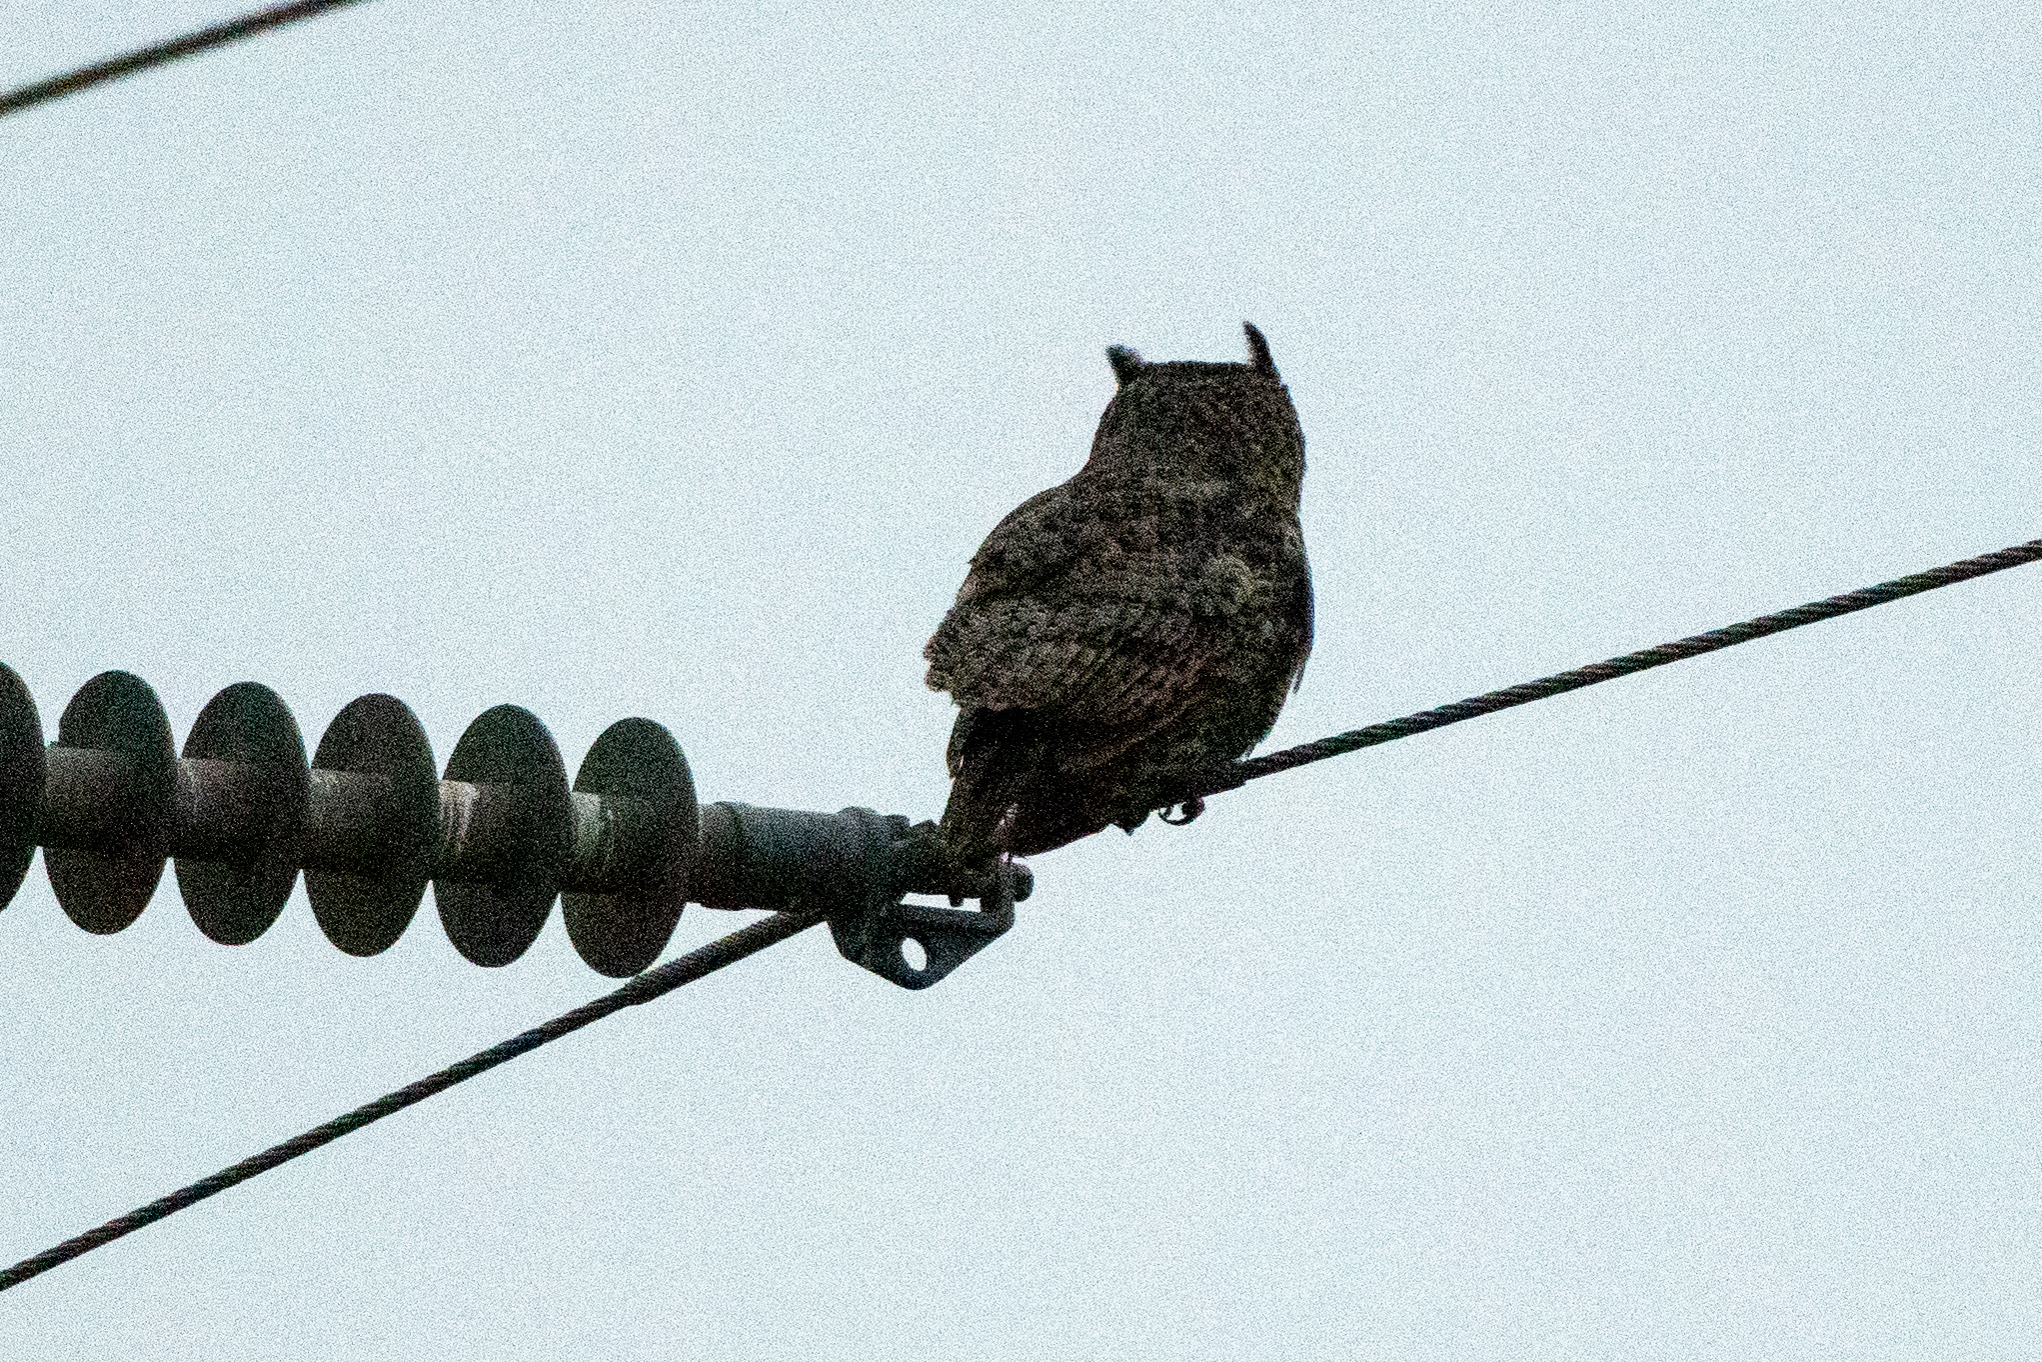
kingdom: Animalia
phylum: Chordata
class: Aves
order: Strigiformes
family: Strigidae
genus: Bubo
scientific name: Bubo virginianus
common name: Great horned owl
